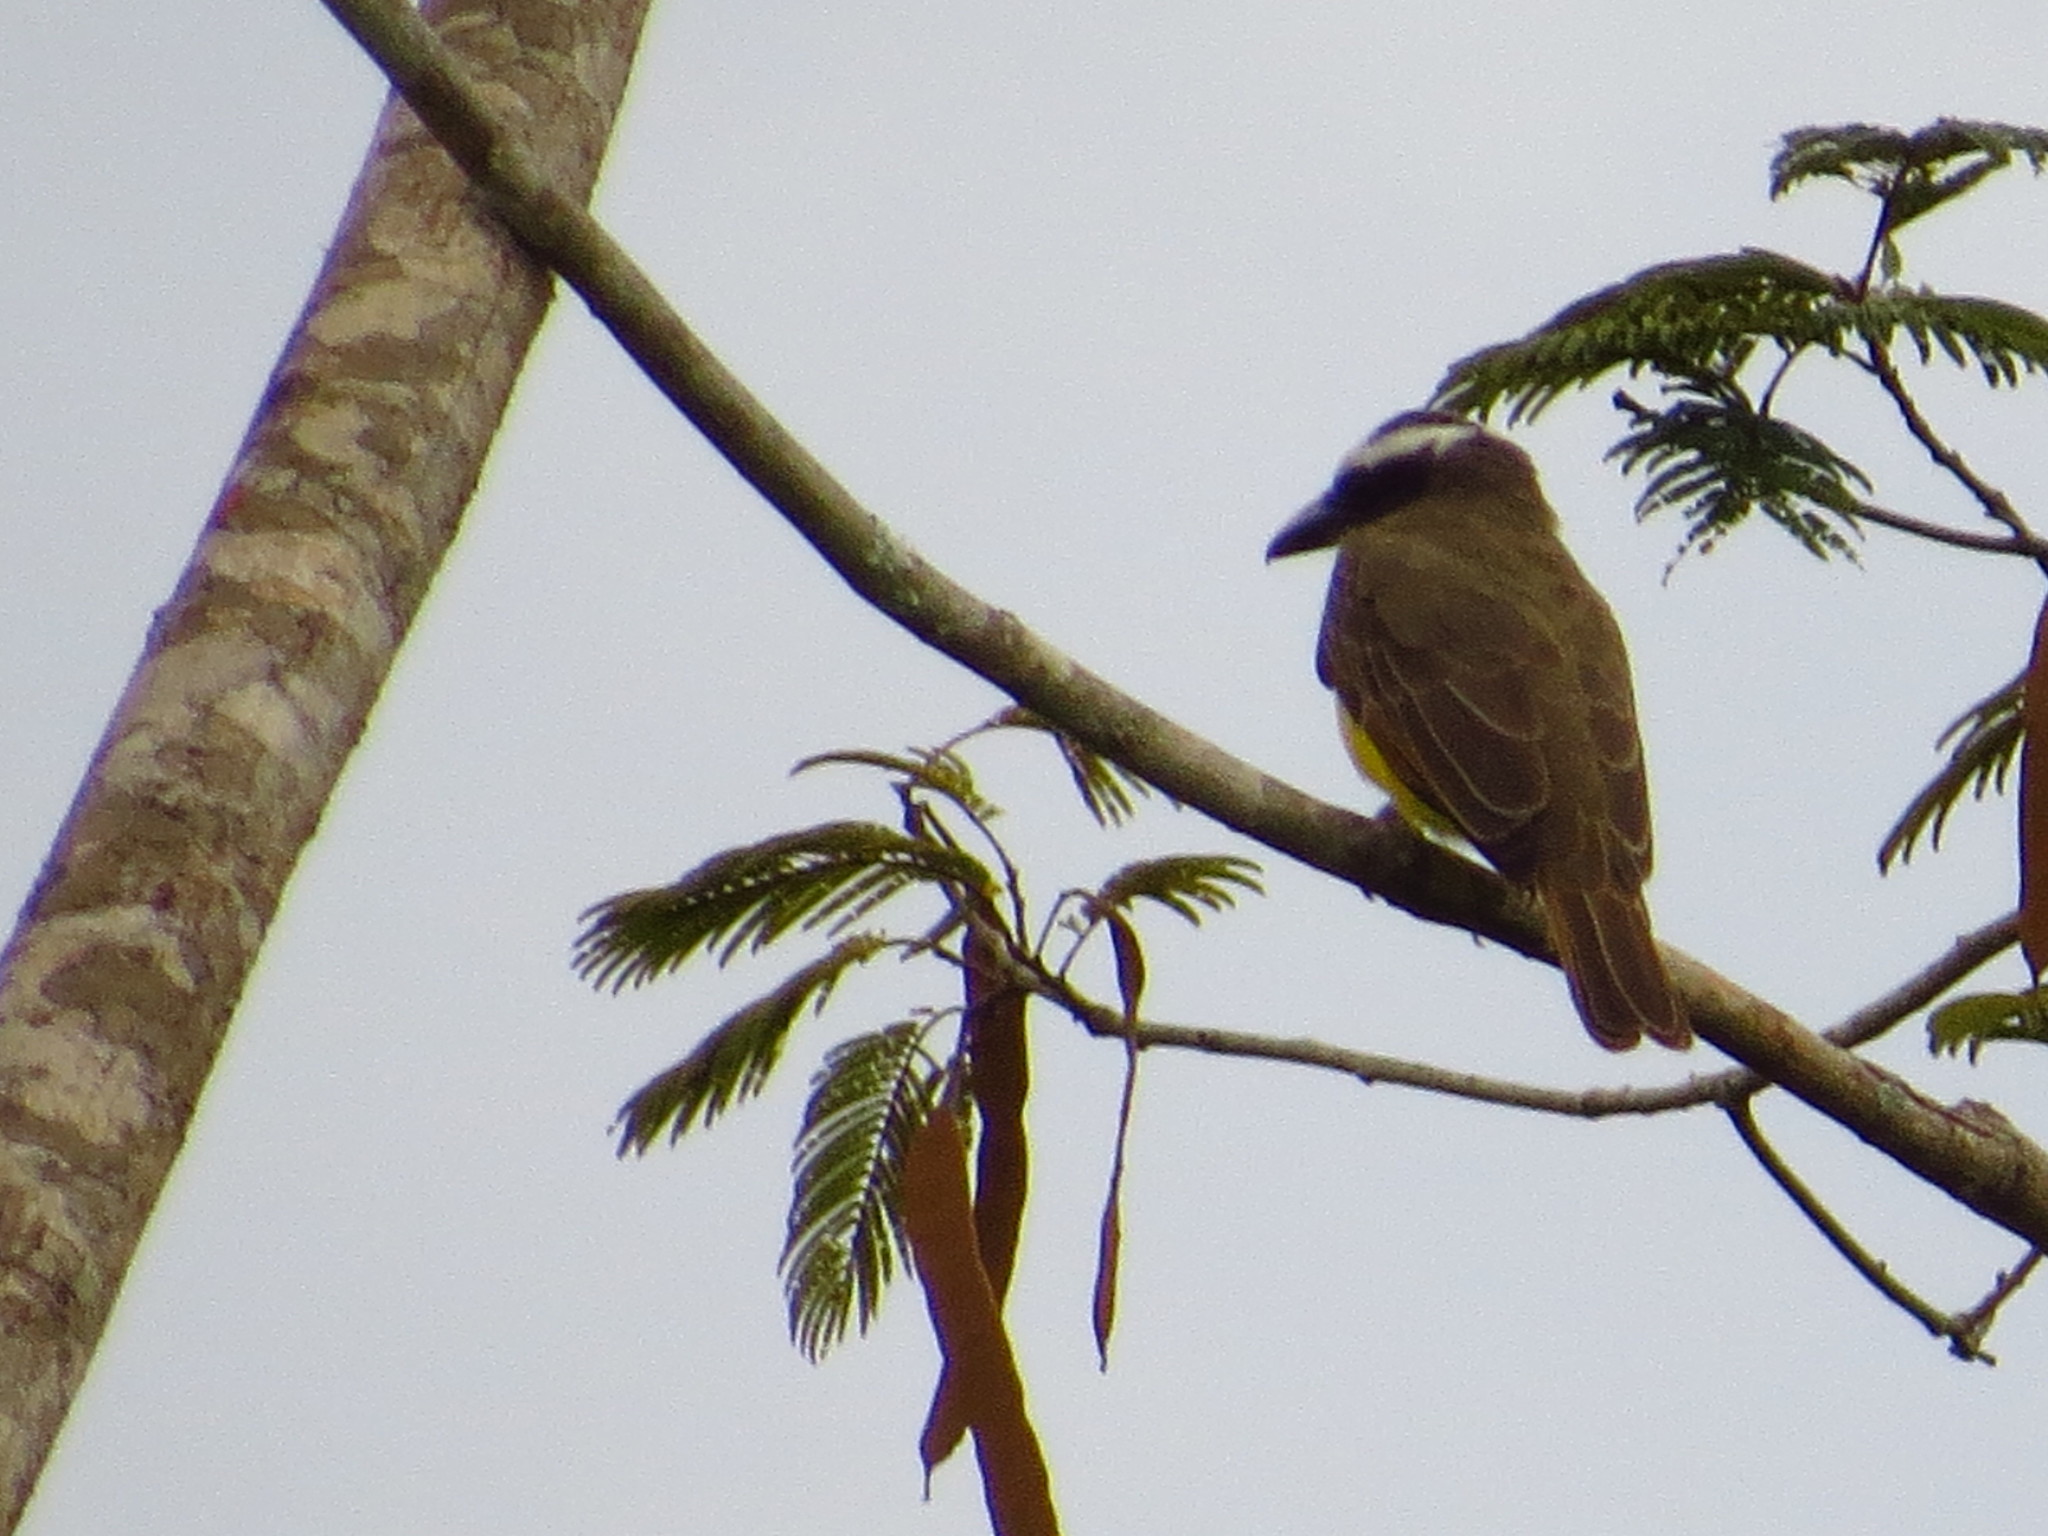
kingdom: Animalia
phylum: Chordata
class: Aves
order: Passeriformes
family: Tyrannidae
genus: Megarynchus
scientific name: Megarynchus pitangua
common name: Boat-billed flycatcher
